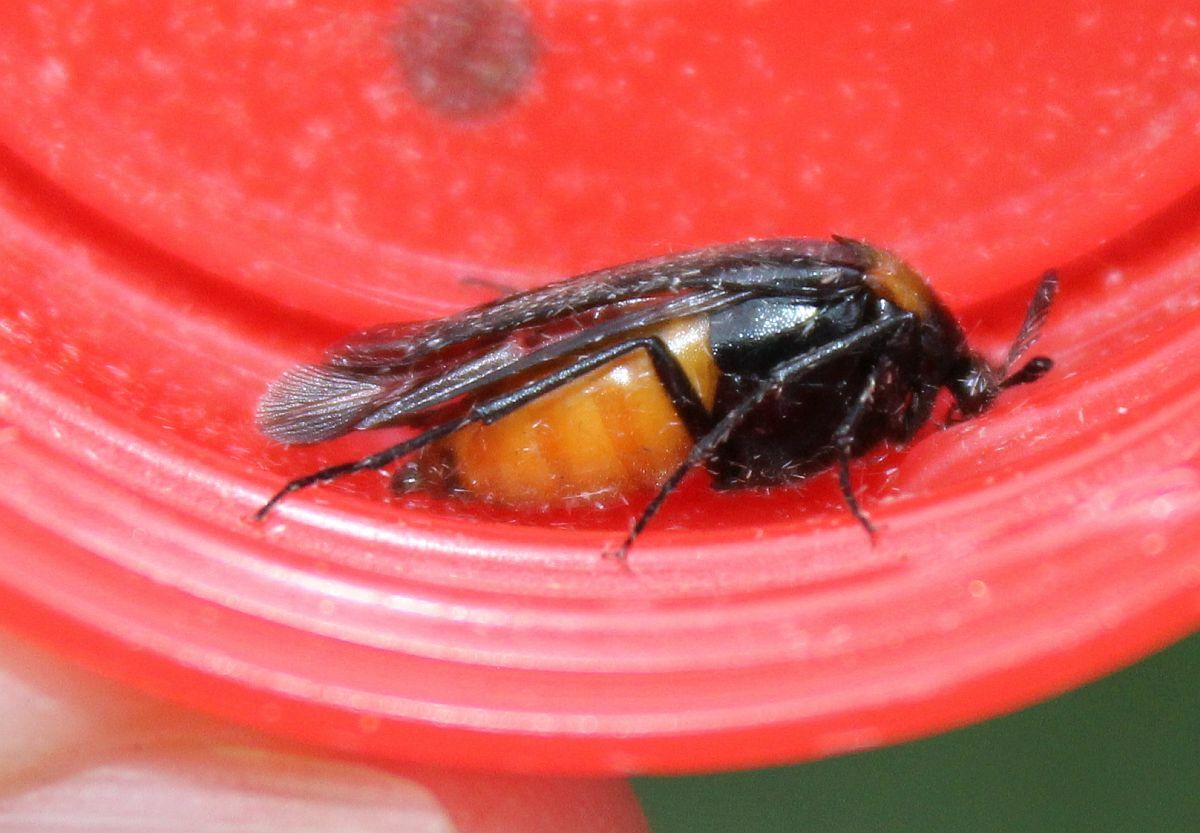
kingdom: Animalia
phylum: Arthropoda
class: Insecta
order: Coleoptera
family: Ripiphoridae
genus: Metoecus
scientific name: Metoecus paradoxus
